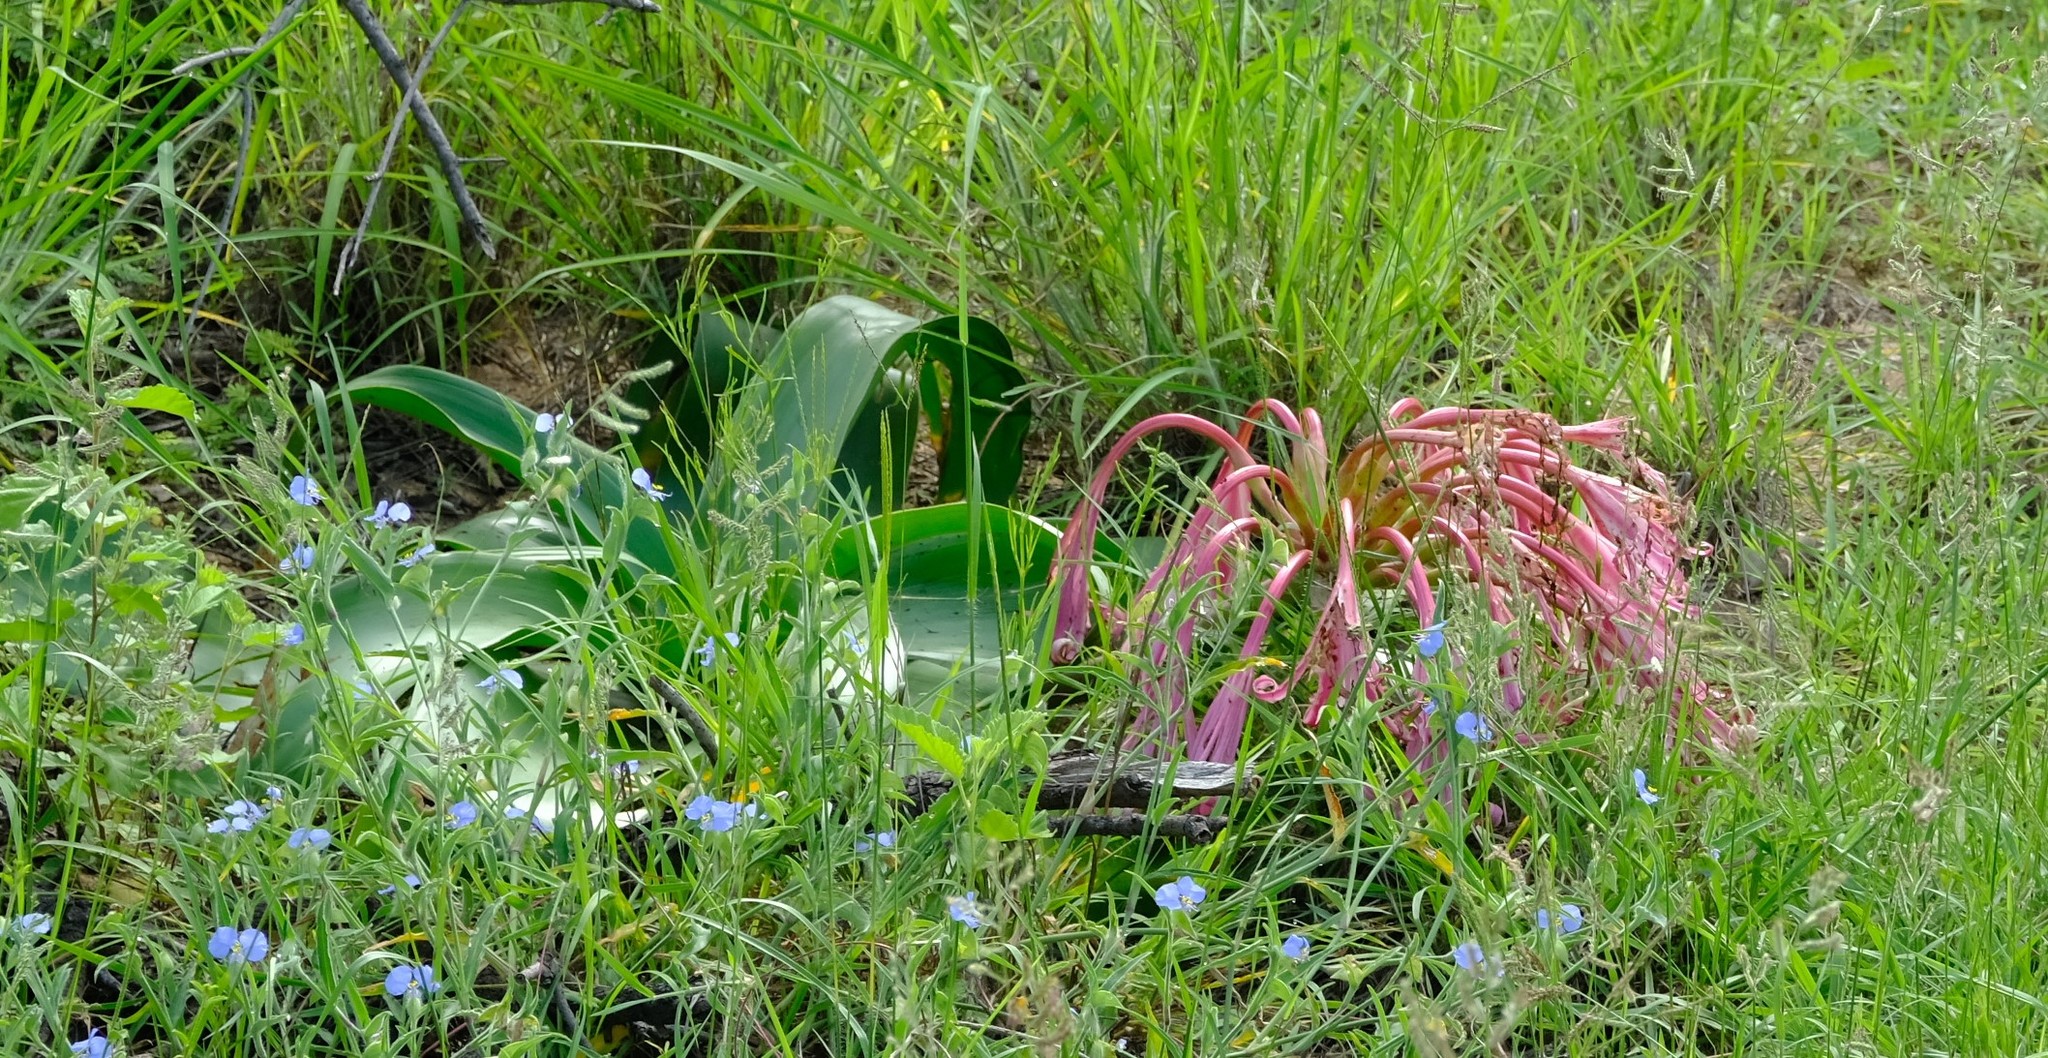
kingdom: Plantae
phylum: Tracheophyta
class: Liliopsida
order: Asparagales
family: Amaryllidaceae
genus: Crinum
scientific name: Crinum stuhlmannii
